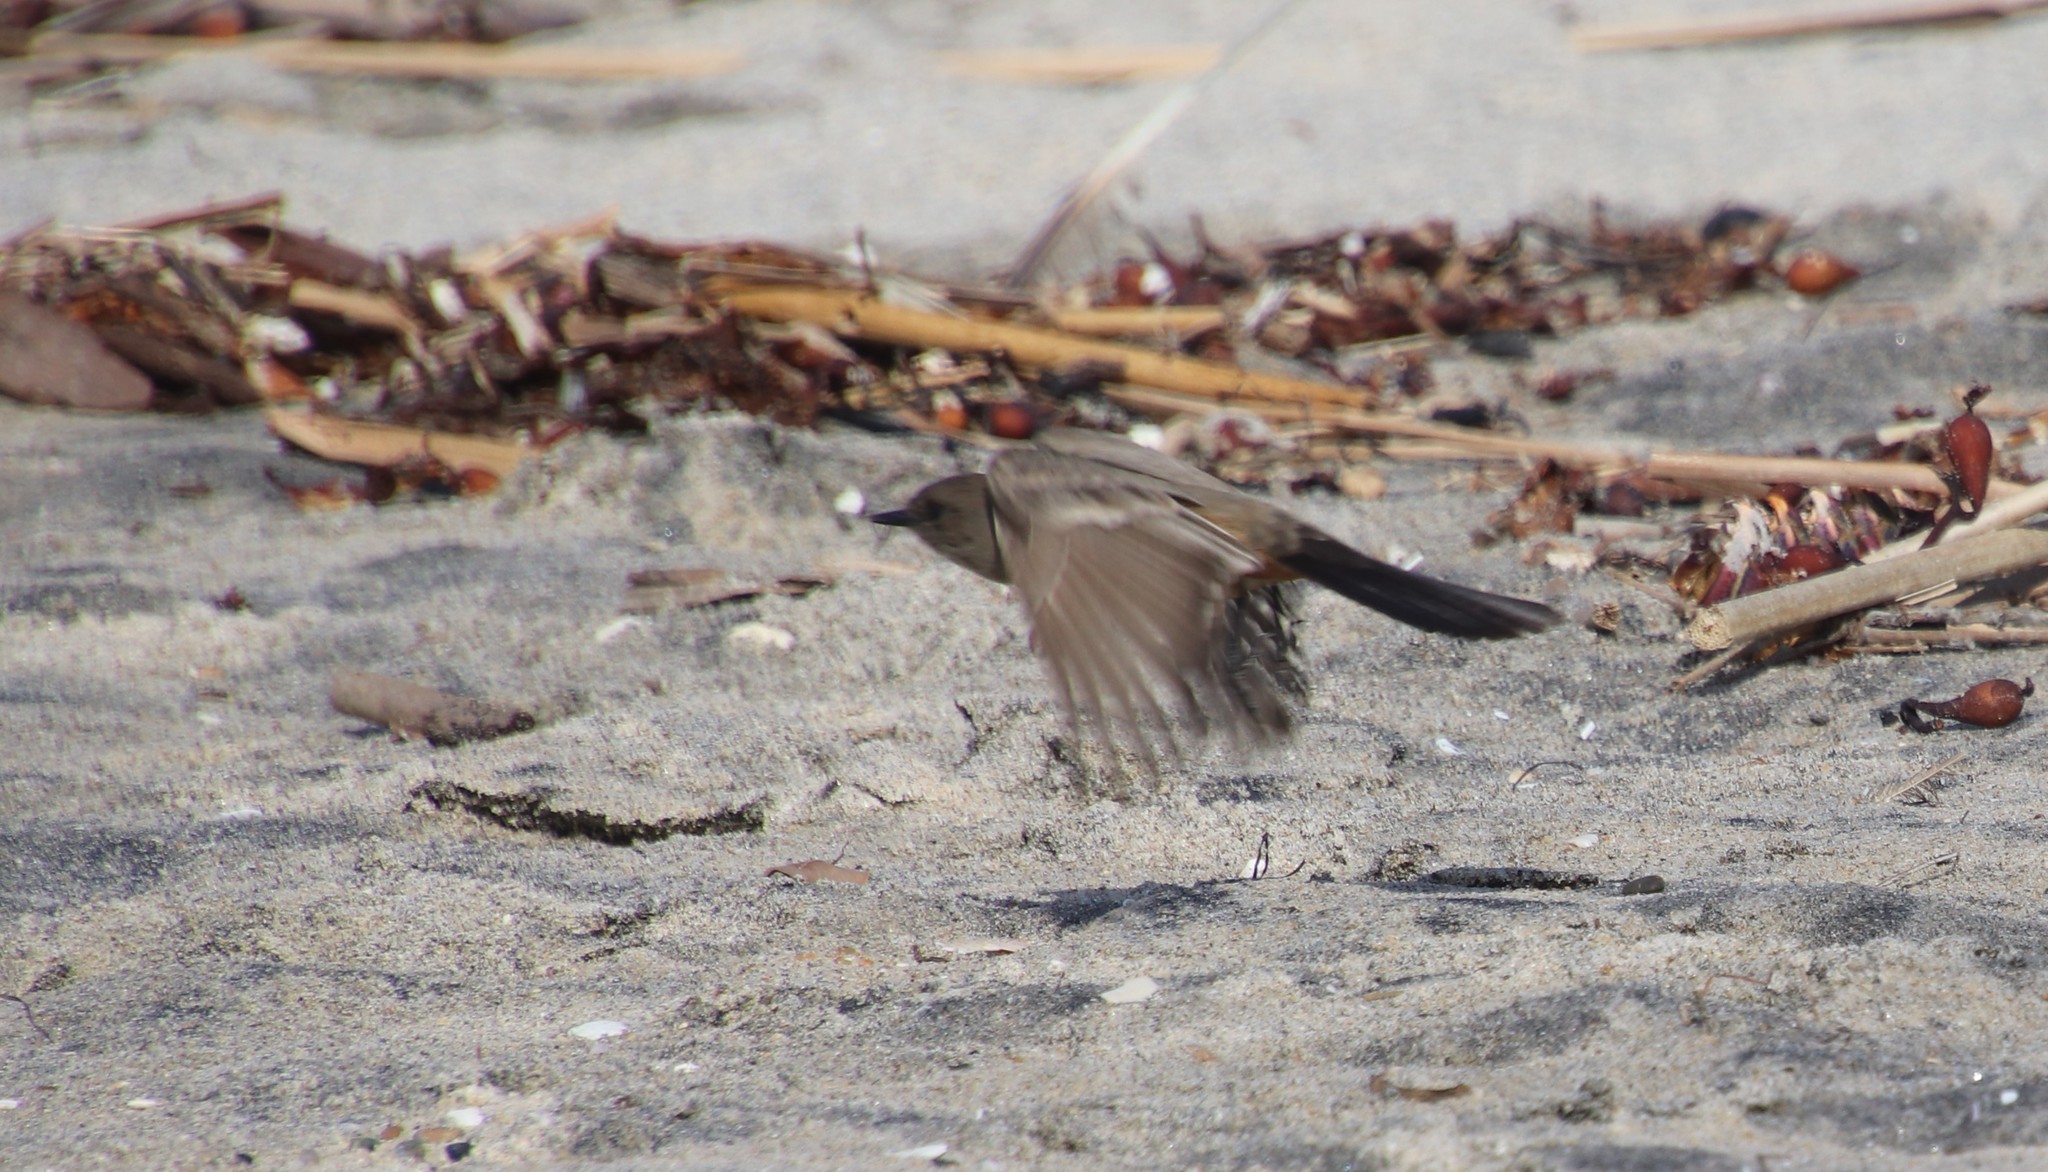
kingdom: Animalia
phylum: Chordata
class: Aves
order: Passeriformes
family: Tyrannidae
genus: Sayornis
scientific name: Sayornis saya
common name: Say's phoebe
